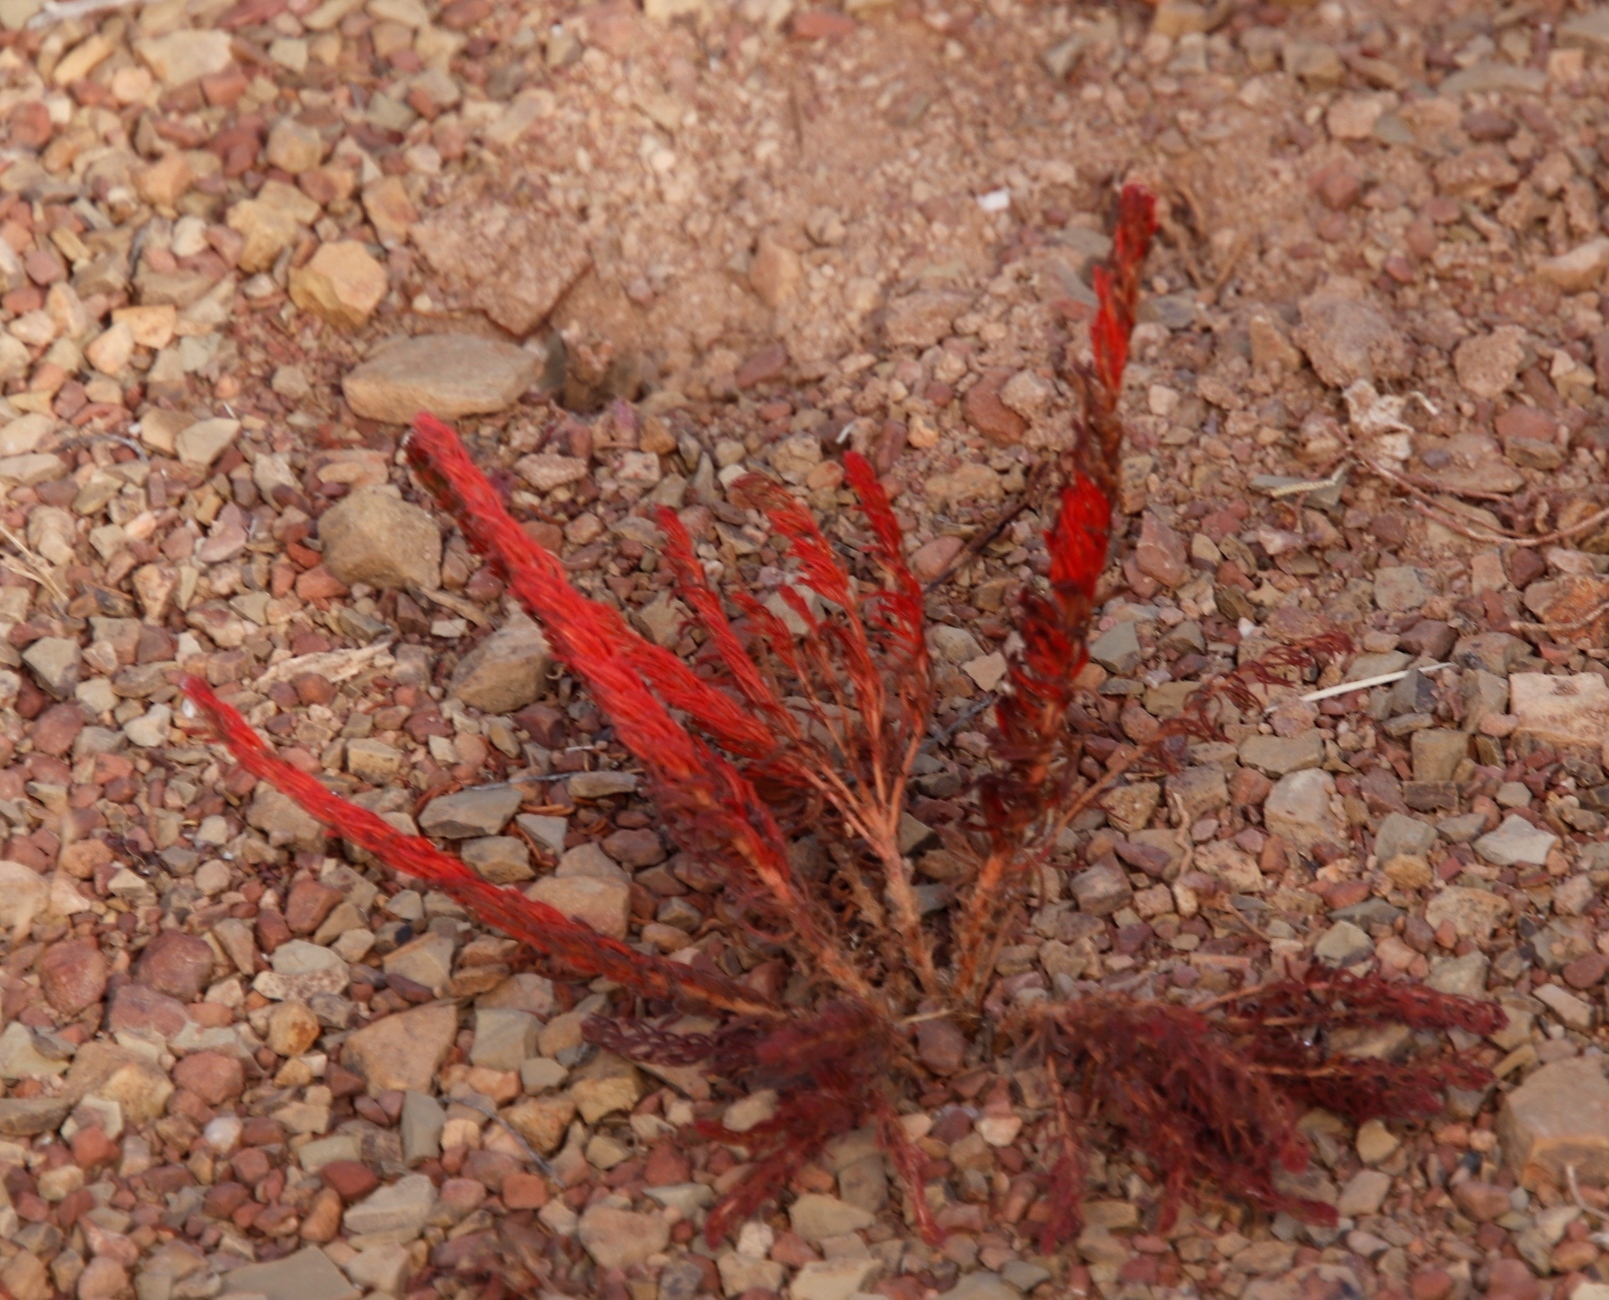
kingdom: Plantae
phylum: Tracheophyta
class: Magnoliopsida
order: Oxalidales
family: Oxalidaceae
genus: Oxalis
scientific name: Oxalis massoniana
